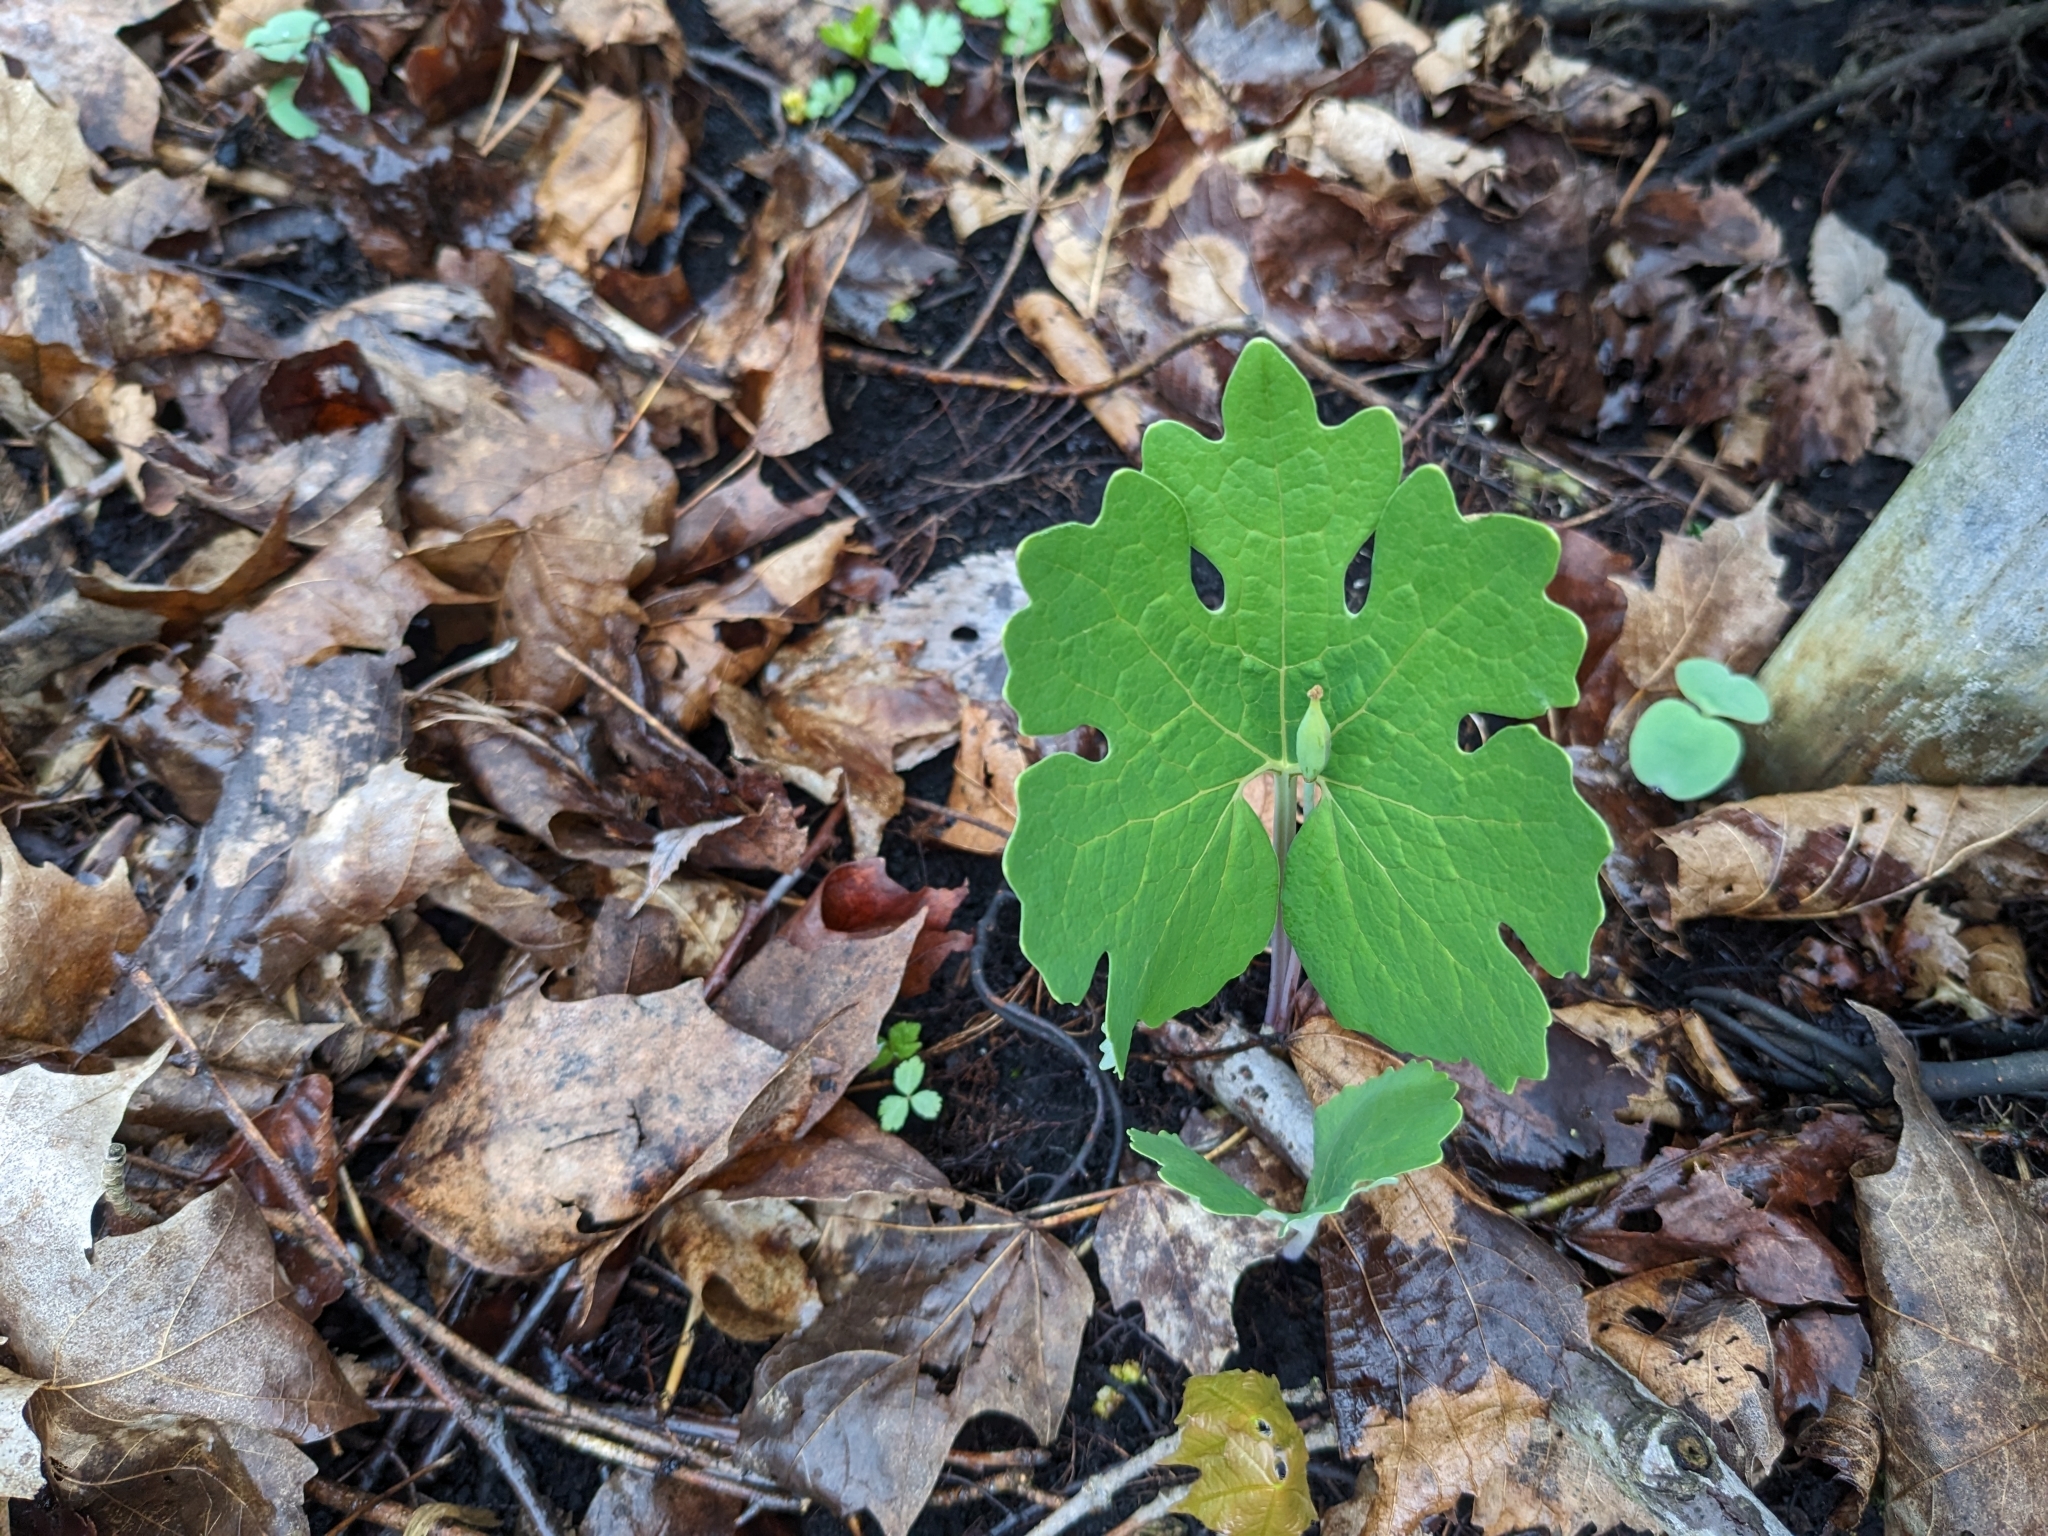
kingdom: Plantae
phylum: Tracheophyta
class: Magnoliopsida
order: Ranunculales
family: Papaveraceae
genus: Sanguinaria
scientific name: Sanguinaria canadensis
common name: Bloodroot
